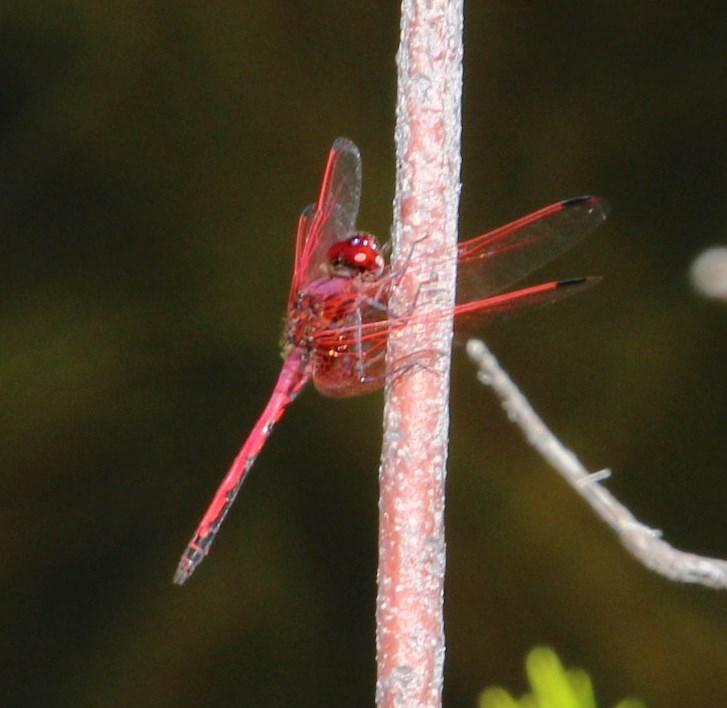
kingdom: Animalia
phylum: Arthropoda
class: Insecta
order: Odonata
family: Libellulidae
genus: Trithemis
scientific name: Trithemis arteriosa
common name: Red-veined dropwing
